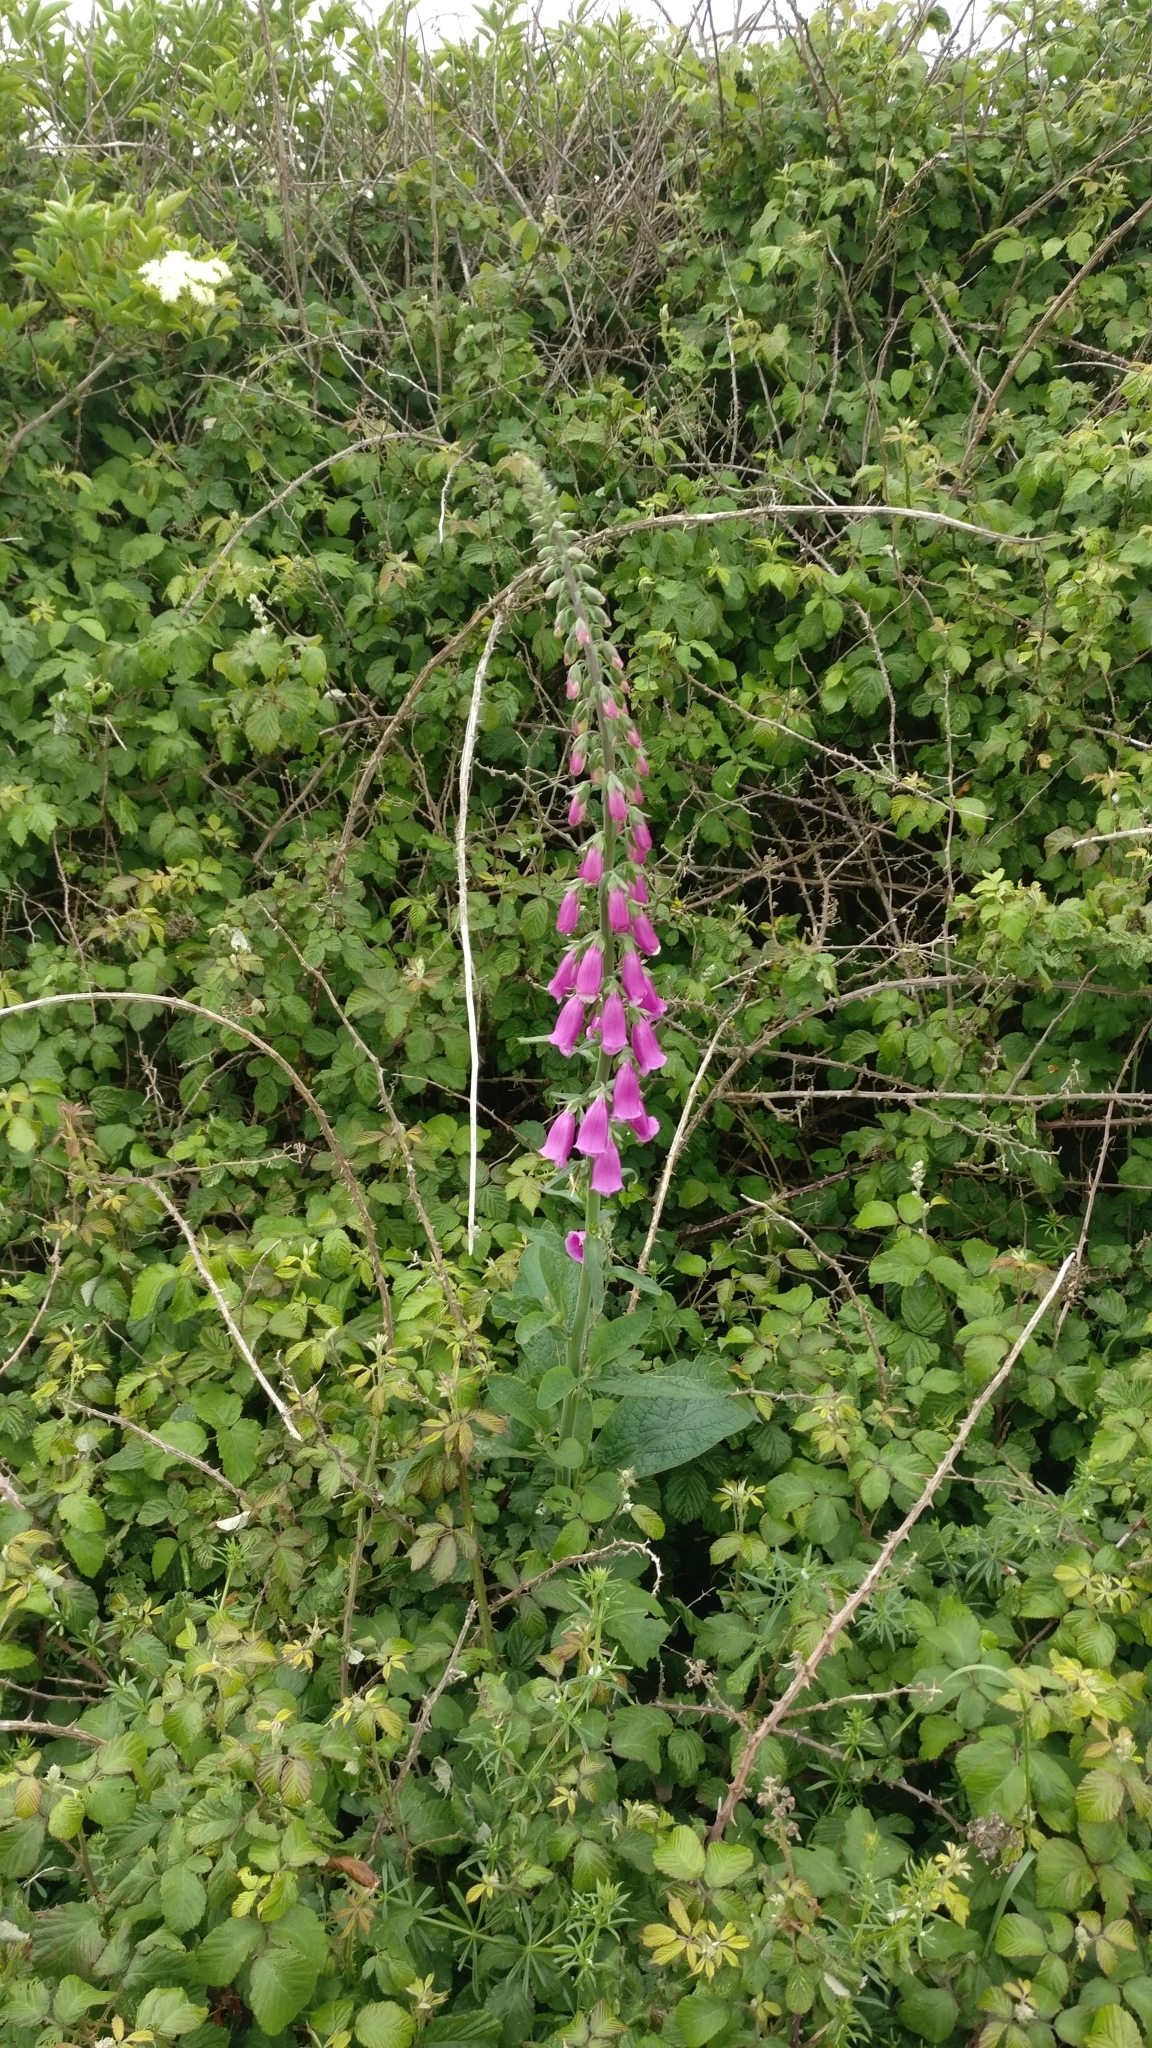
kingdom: Plantae
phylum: Tracheophyta
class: Magnoliopsida
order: Lamiales
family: Plantaginaceae
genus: Digitalis
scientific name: Digitalis purpurea
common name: Foxglove
